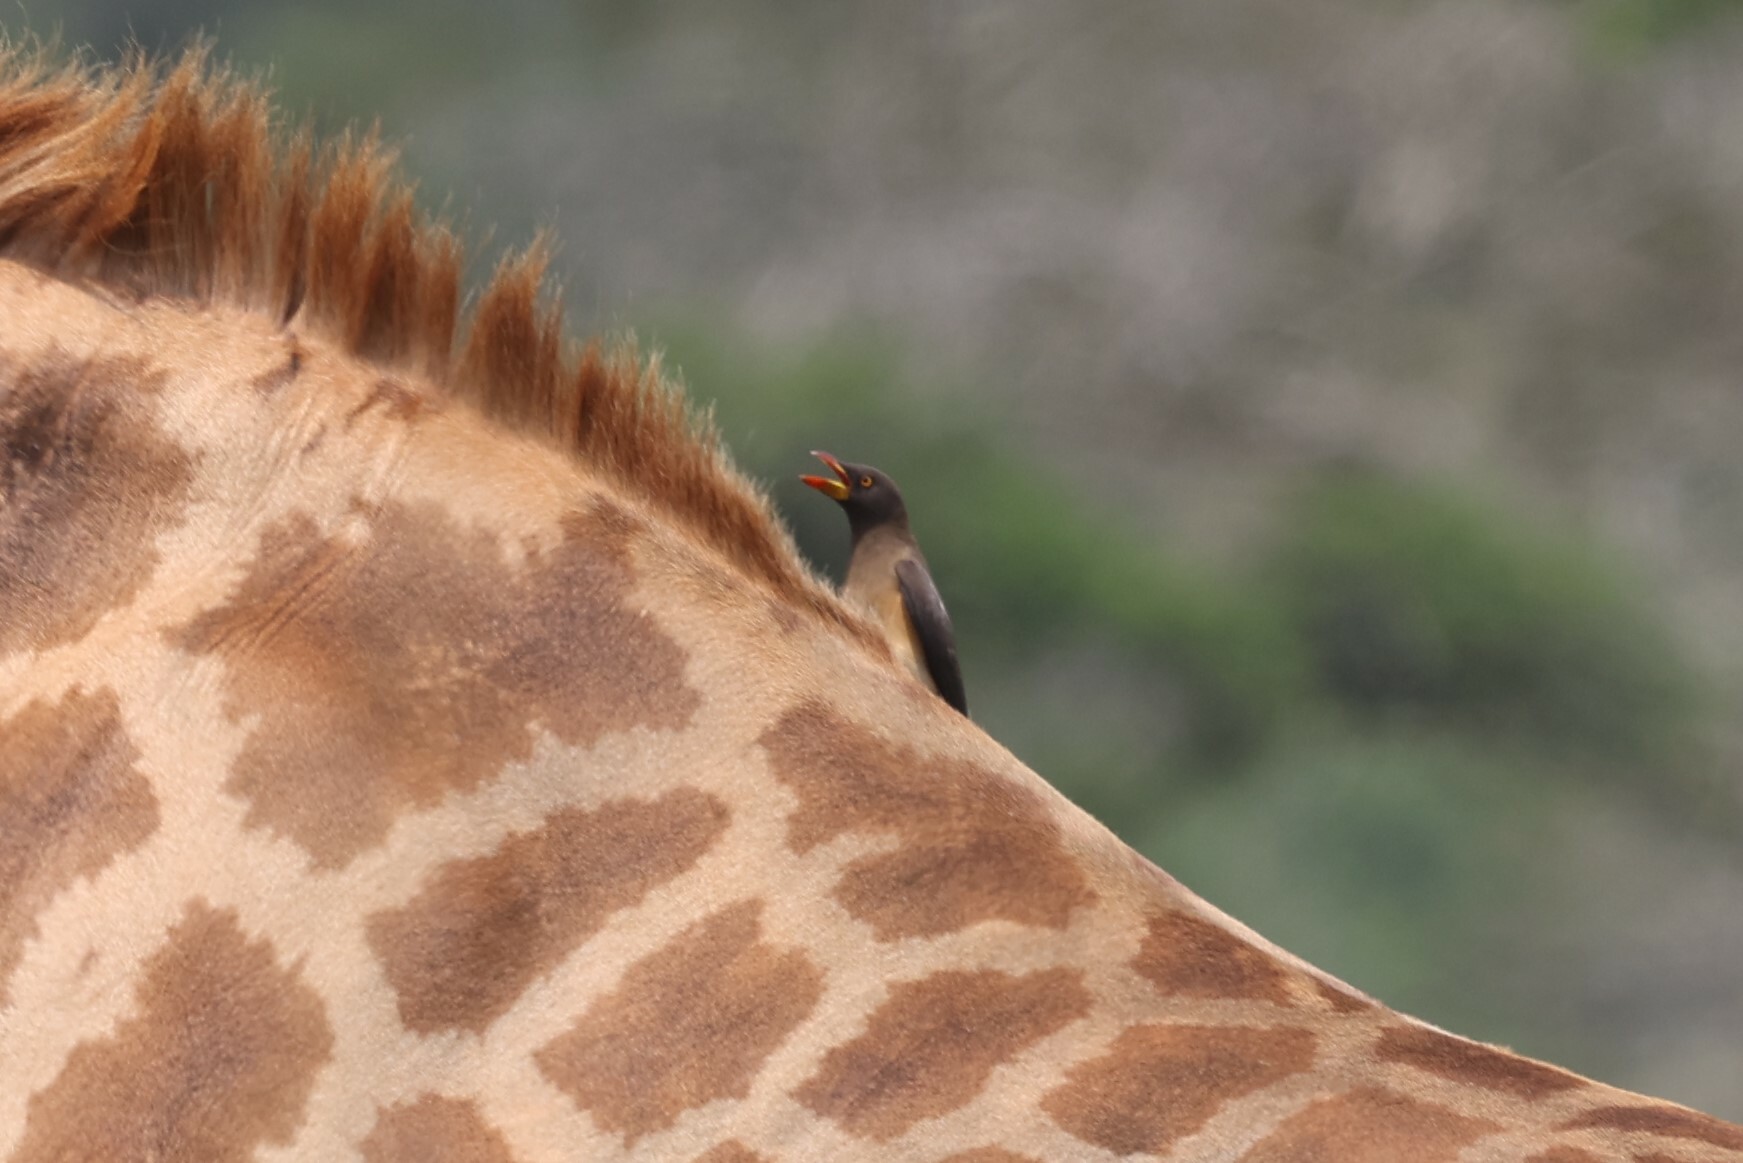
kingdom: Animalia
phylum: Chordata
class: Aves
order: Passeriformes
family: Buphagidae
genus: Buphagus
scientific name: Buphagus africanus
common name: Yellow-billed oxpecker
